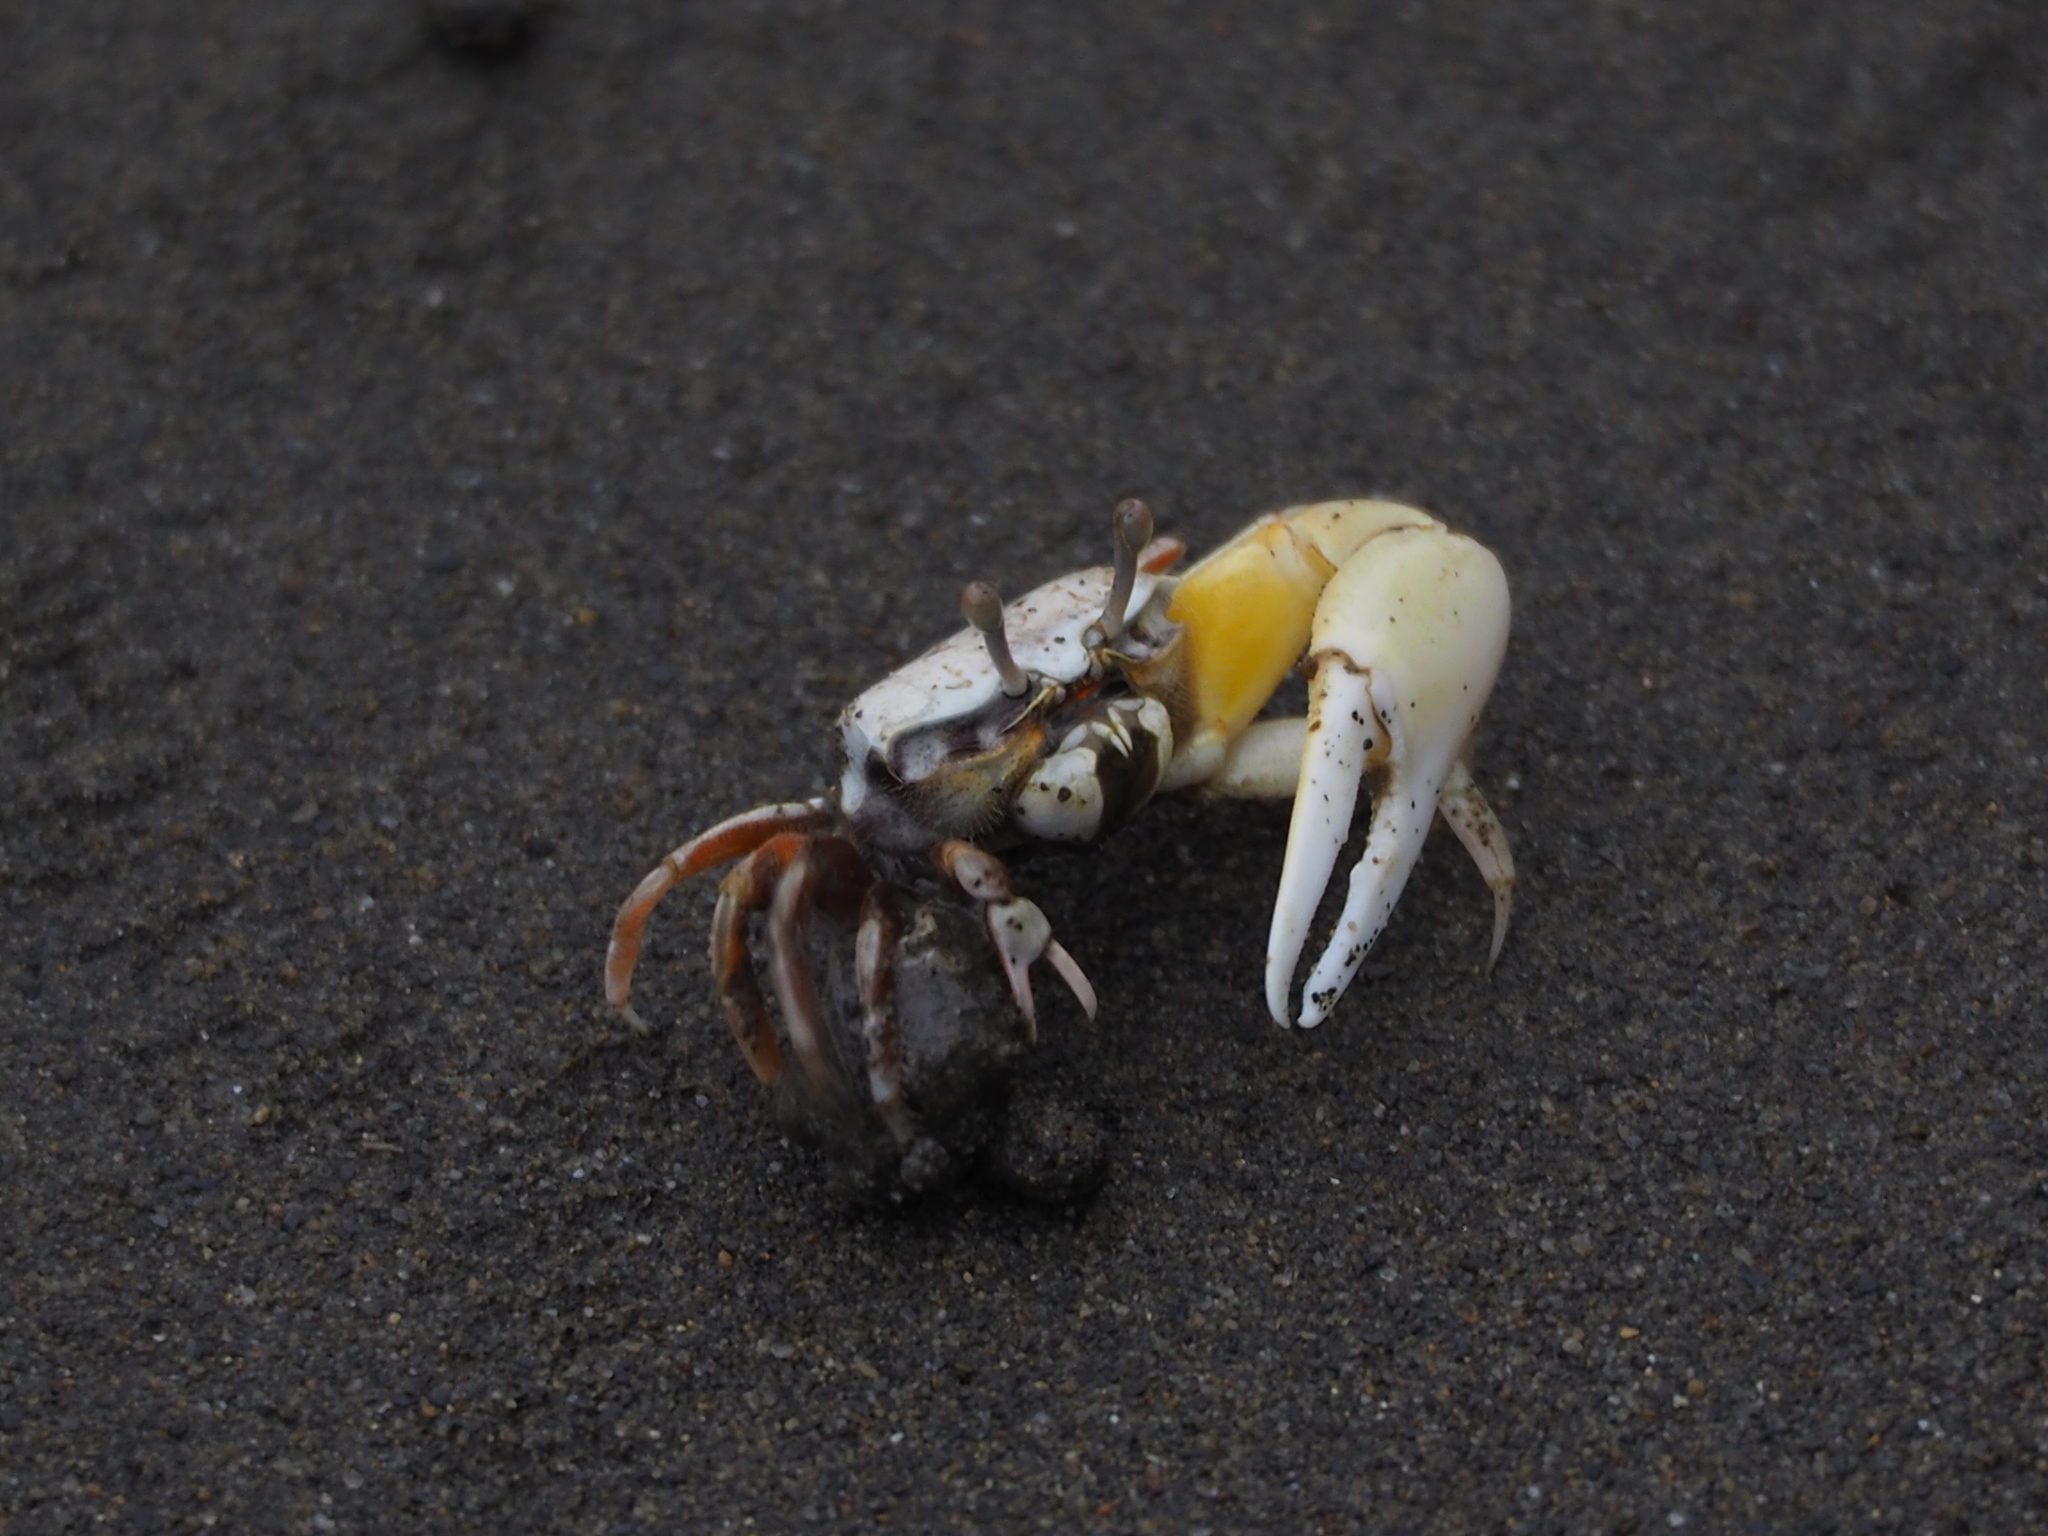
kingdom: Animalia
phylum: Arthropoda
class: Malacostraca
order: Decapoda
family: Ocypodidae
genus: Austruca
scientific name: Austruca lactea
